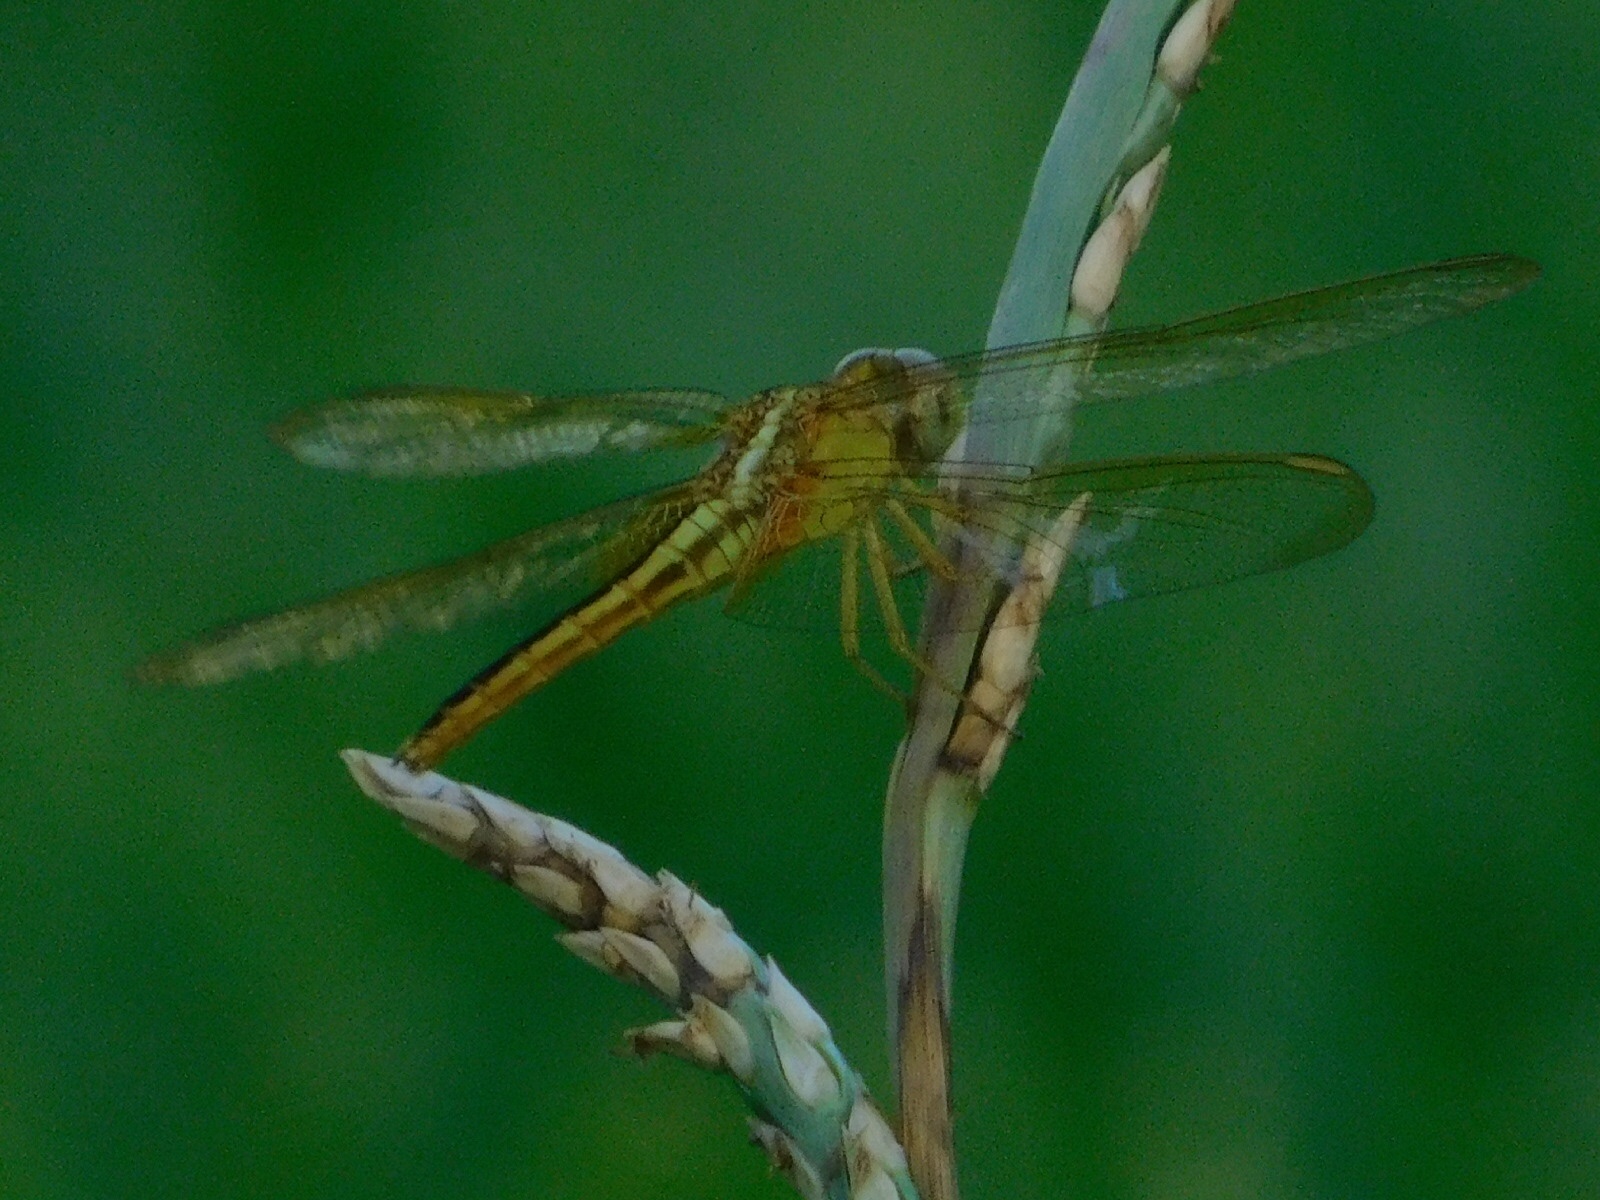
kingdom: Animalia
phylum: Arthropoda
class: Insecta
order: Odonata
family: Libellulidae
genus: Crocothemis
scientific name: Crocothemis servilia
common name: Scarlet skimmer
